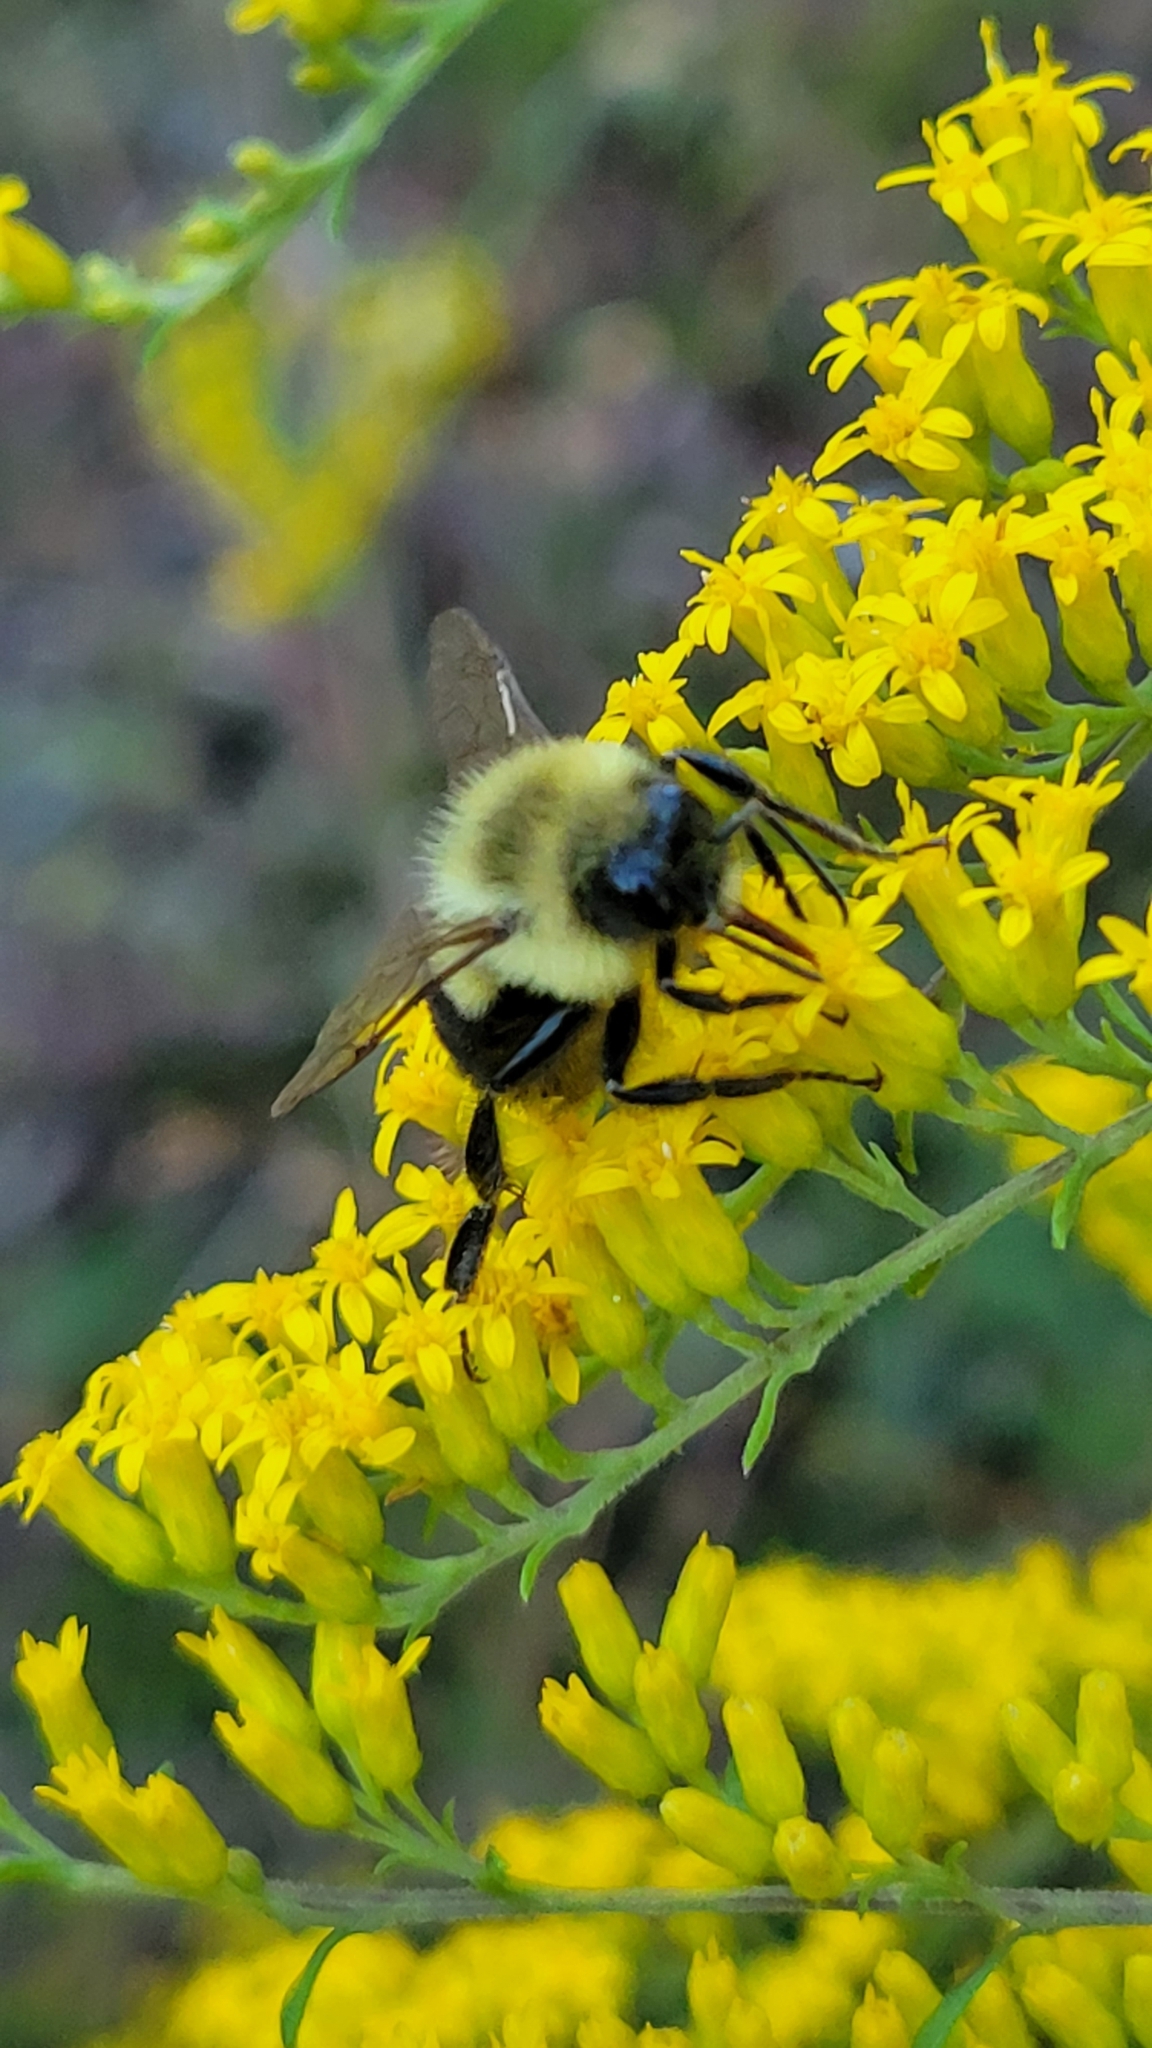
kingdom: Animalia
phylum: Arthropoda
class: Insecta
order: Hymenoptera
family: Apidae
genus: Bombus
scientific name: Bombus impatiens
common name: Common eastern bumble bee
